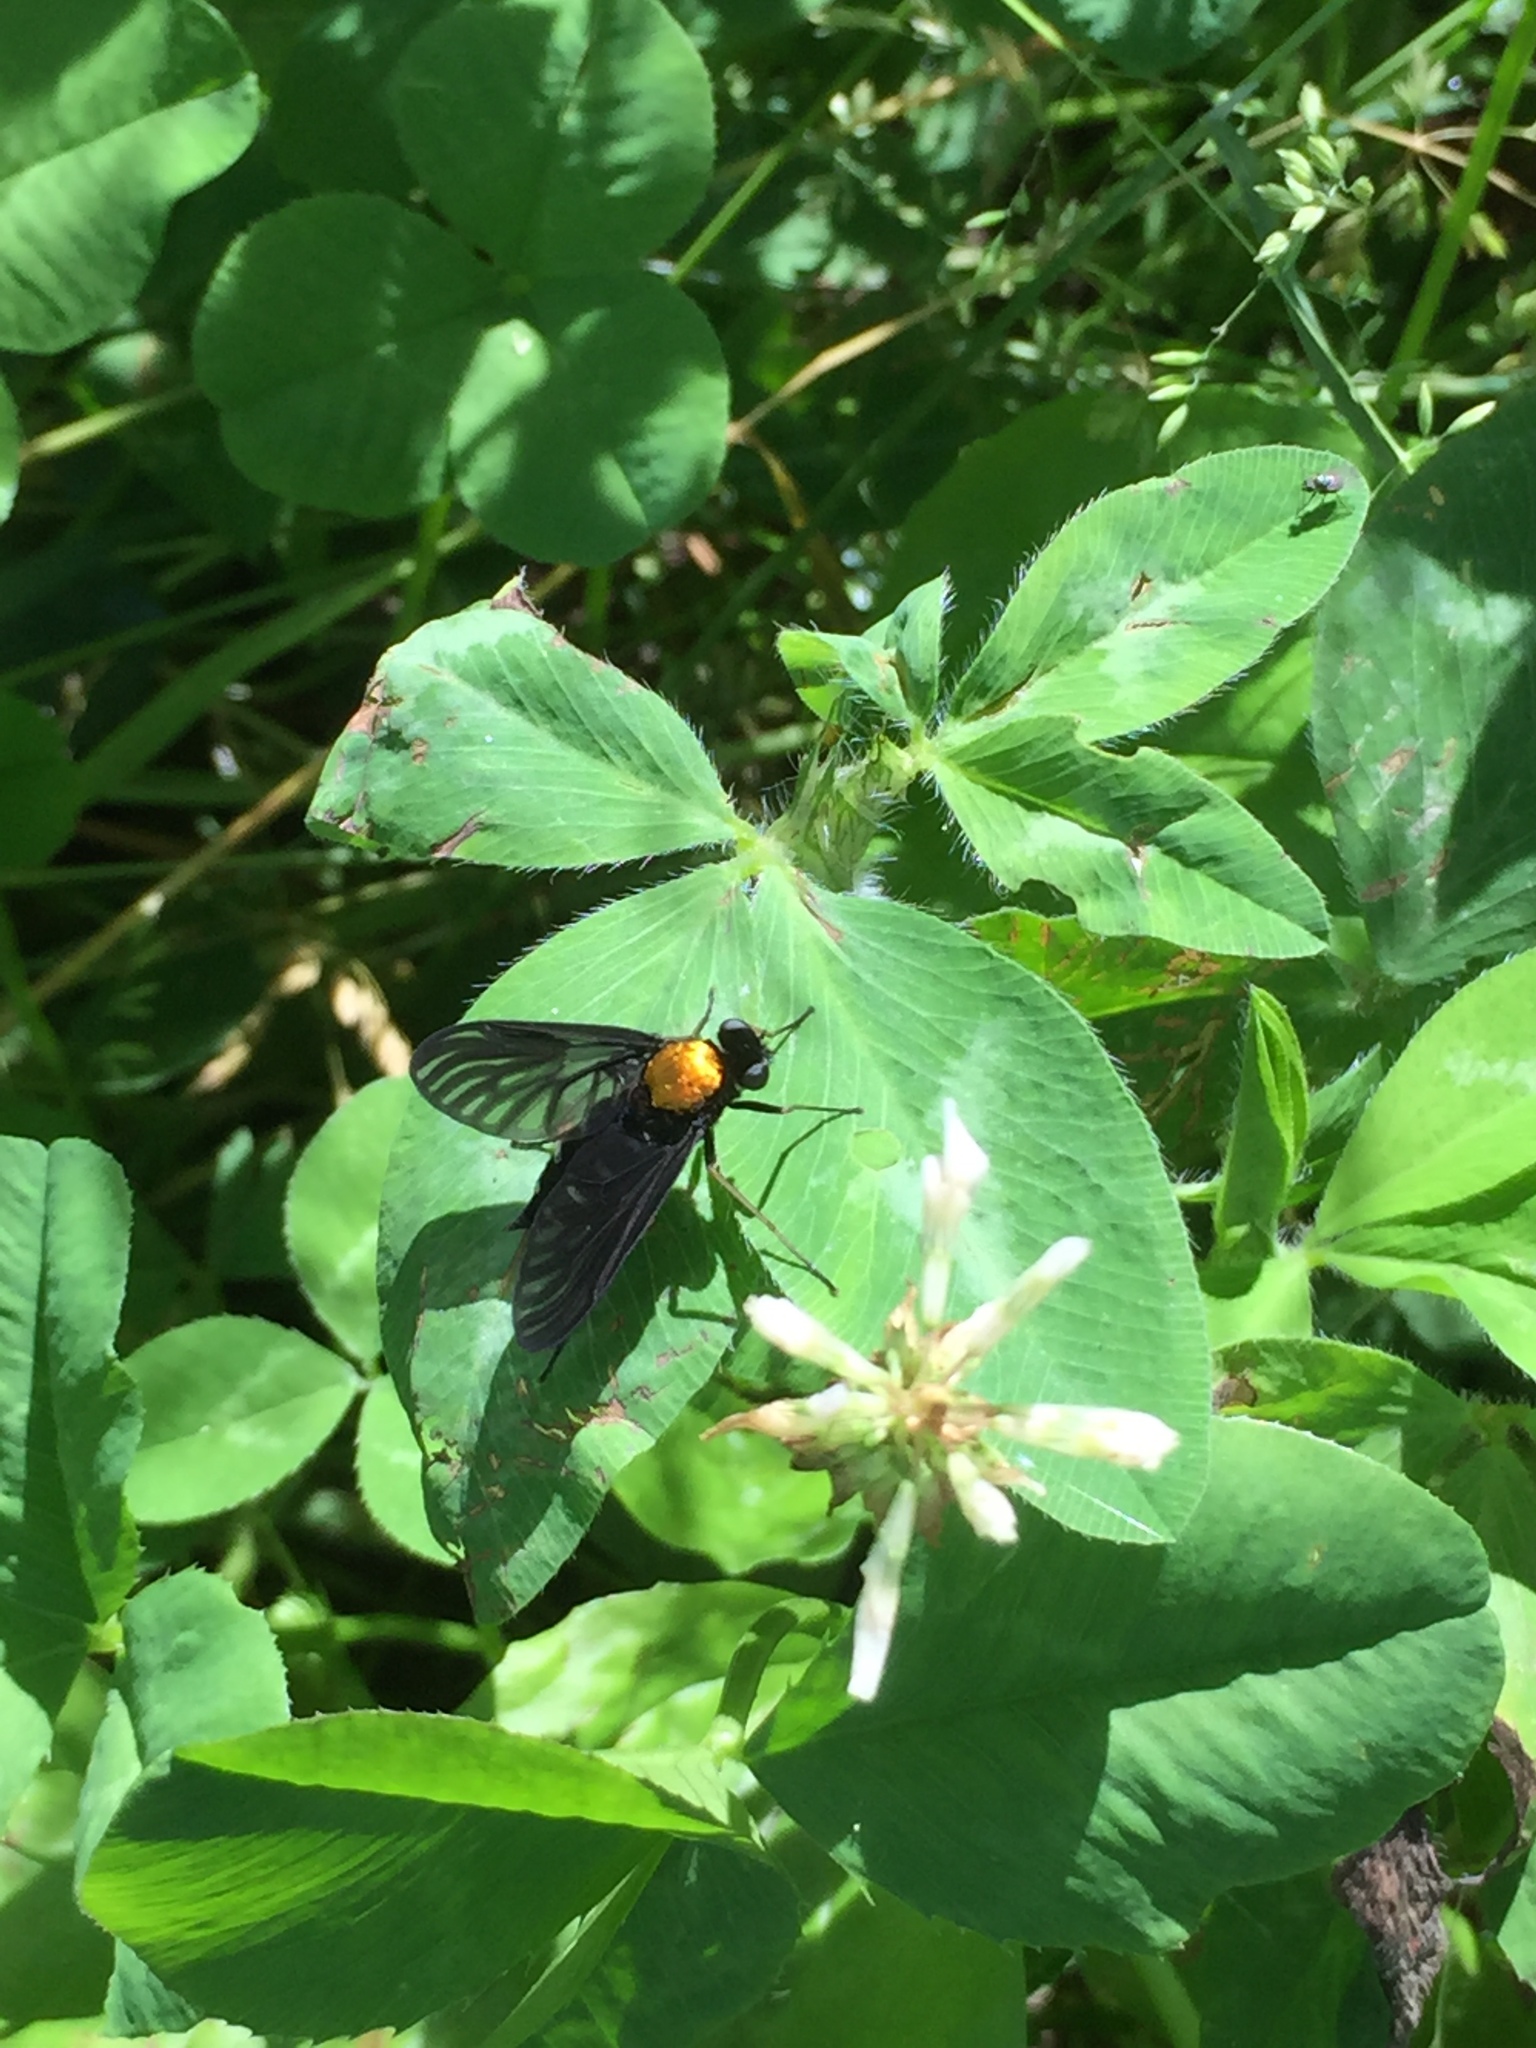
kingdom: Animalia
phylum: Arthropoda
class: Insecta
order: Diptera
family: Rhagionidae
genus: Chrysopilus
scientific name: Chrysopilus thoracicus
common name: Golden-backed snipe fly
